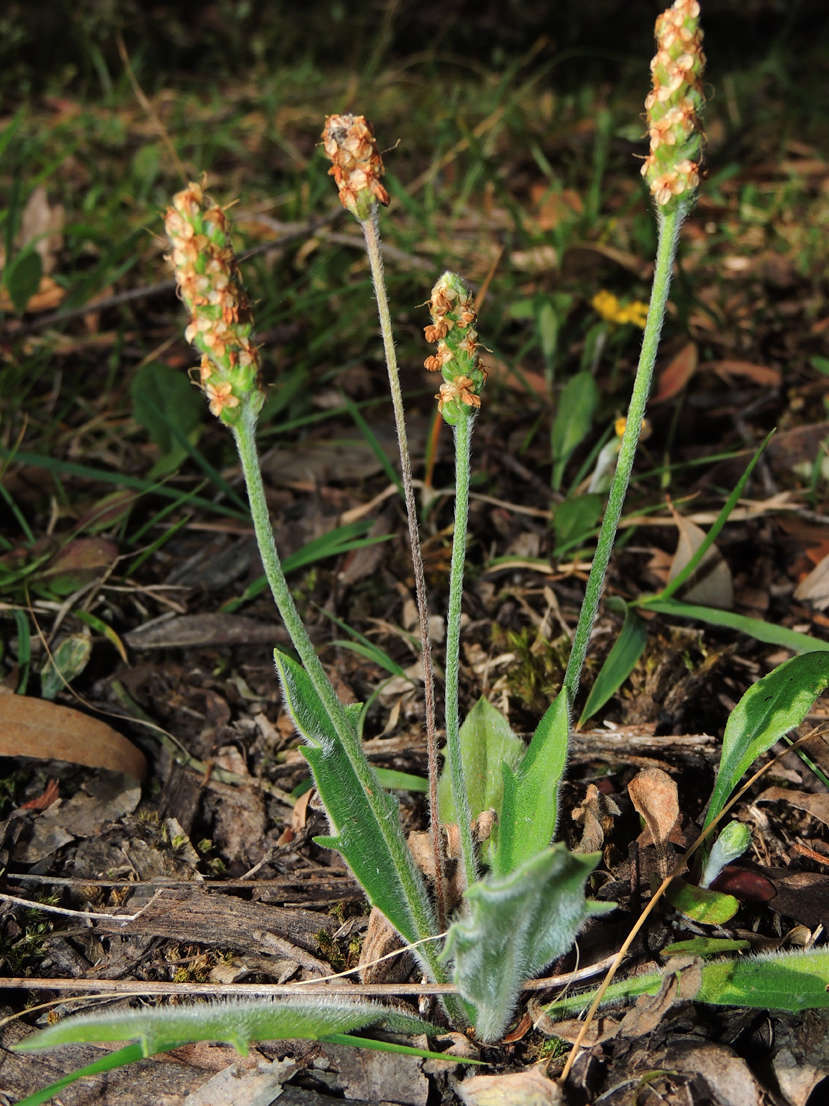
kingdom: Plantae
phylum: Tracheophyta
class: Magnoliopsida
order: Lamiales
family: Plantaginaceae
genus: Plantago
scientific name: Plantago varia
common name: Variable plantain
